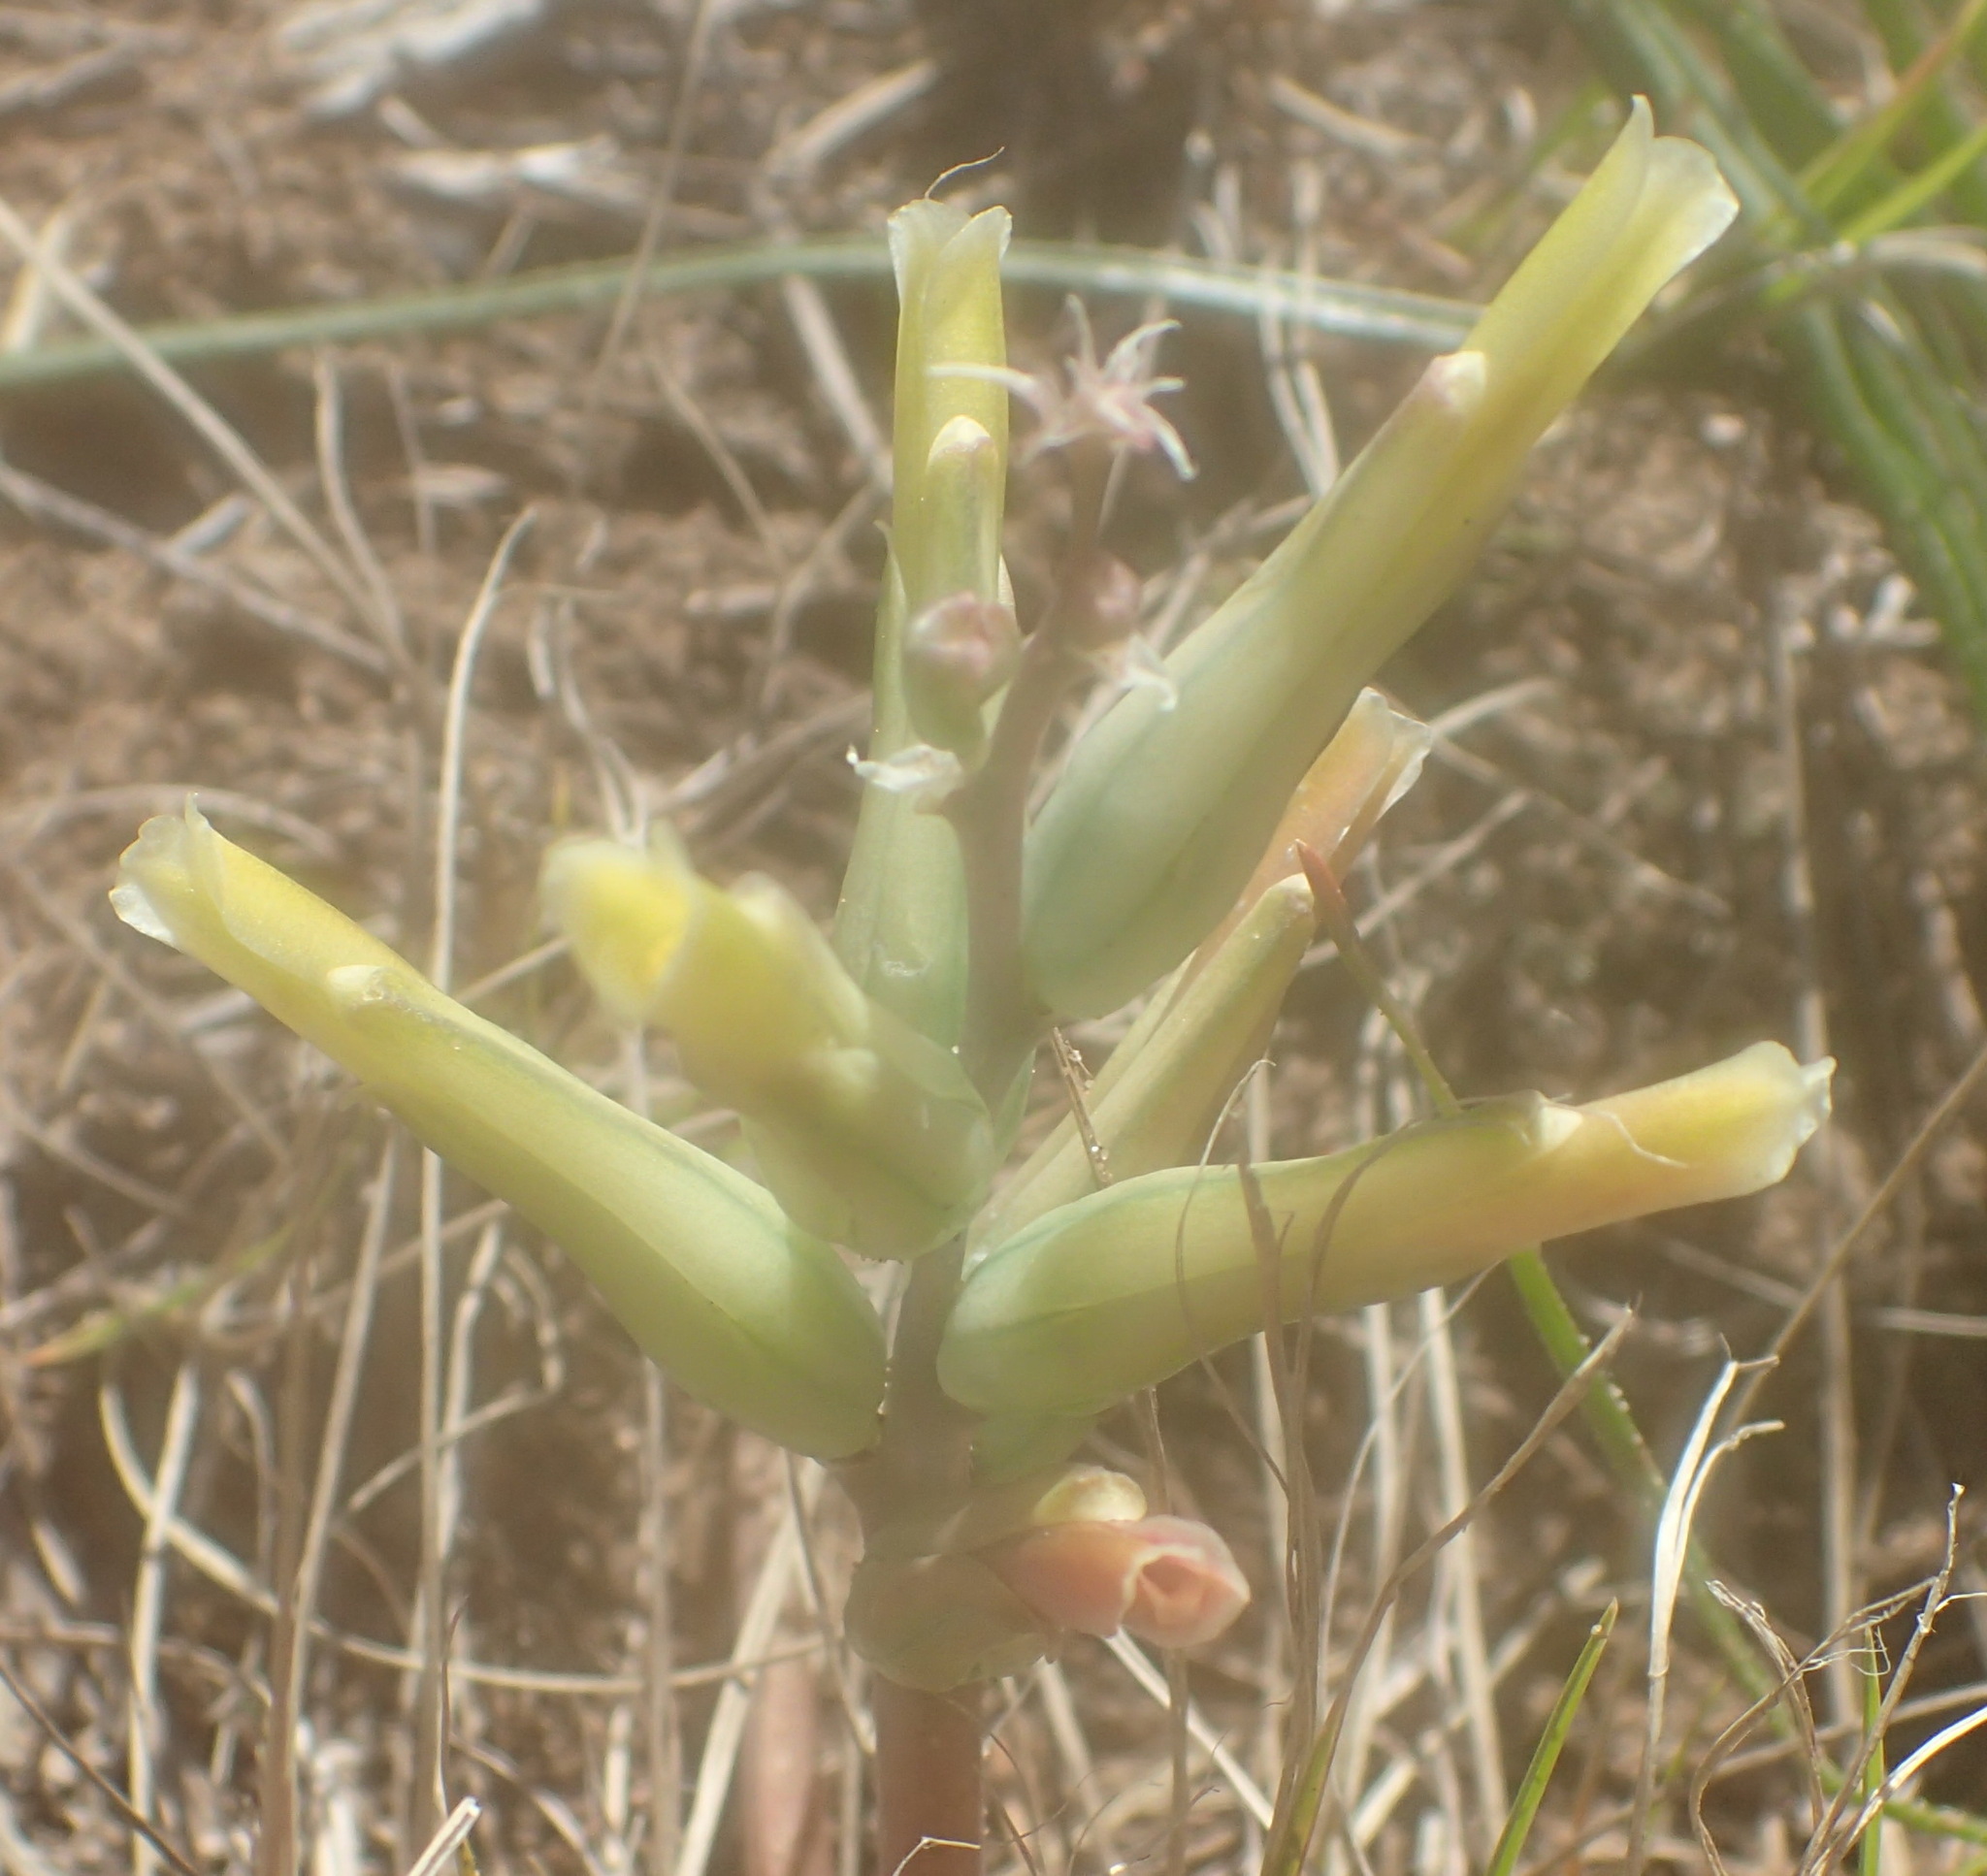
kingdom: Plantae
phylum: Tracheophyta
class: Liliopsida
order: Asparagales
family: Asparagaceae
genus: Lachenalia
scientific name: Lachenalia algoensis
